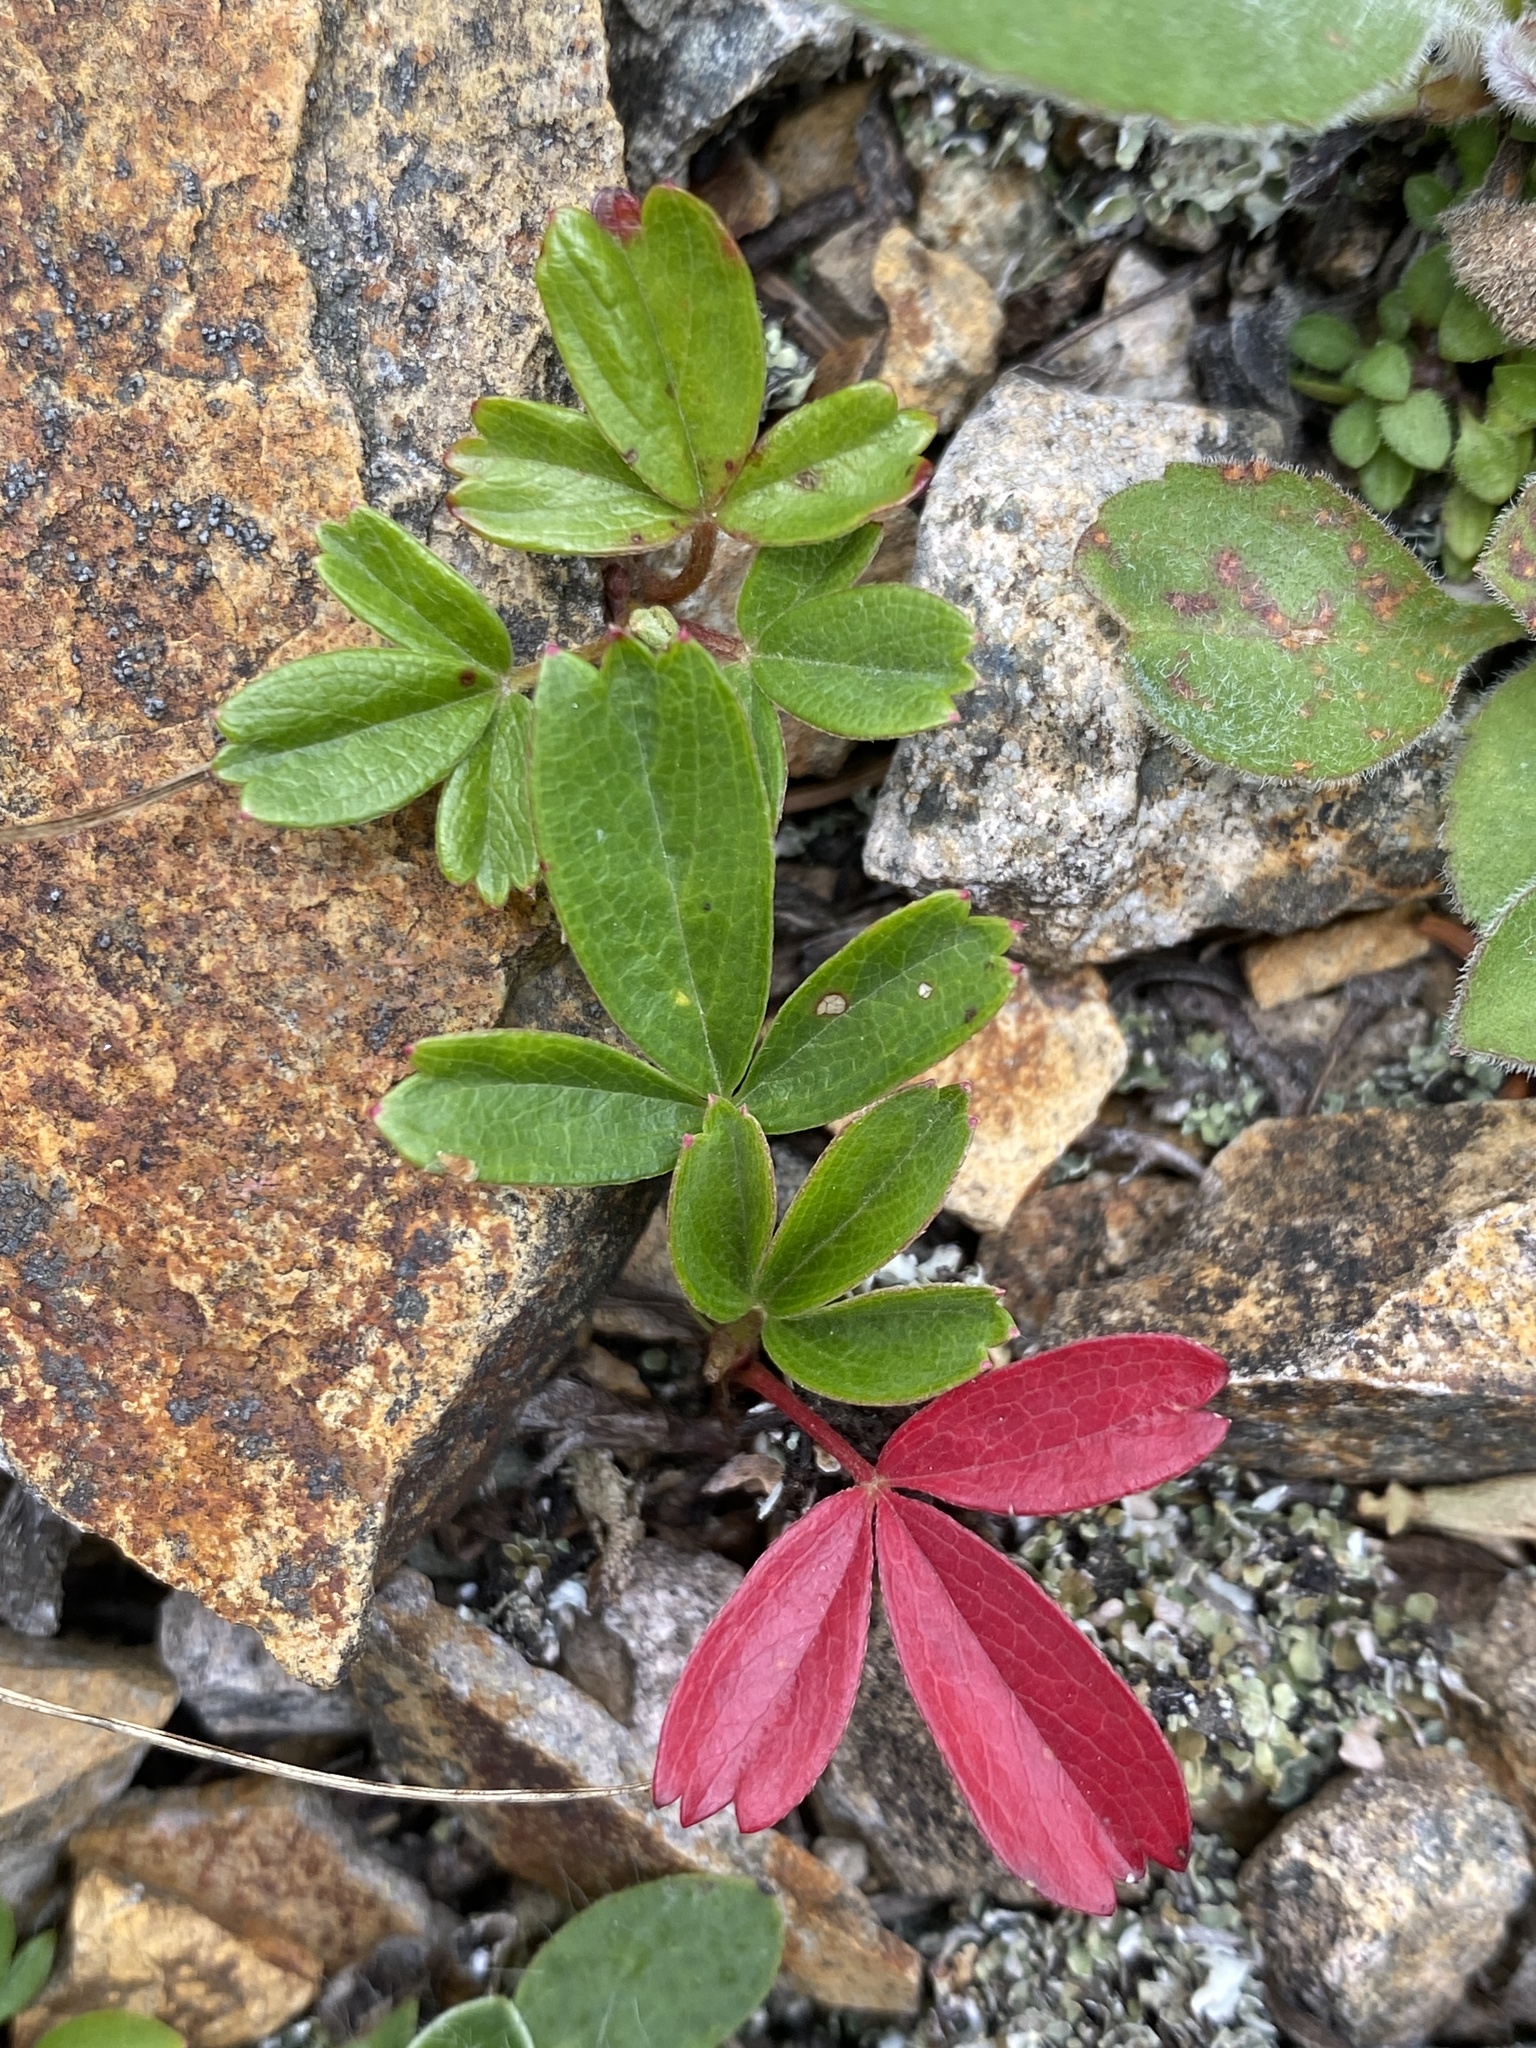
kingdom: Plantae
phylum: Tracheophyta
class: Magnoliopsida
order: Rosales
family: Rosaceae
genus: Sibbaldia
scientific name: Sibbaldia tridentata
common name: Three-toothed cinquefoil
